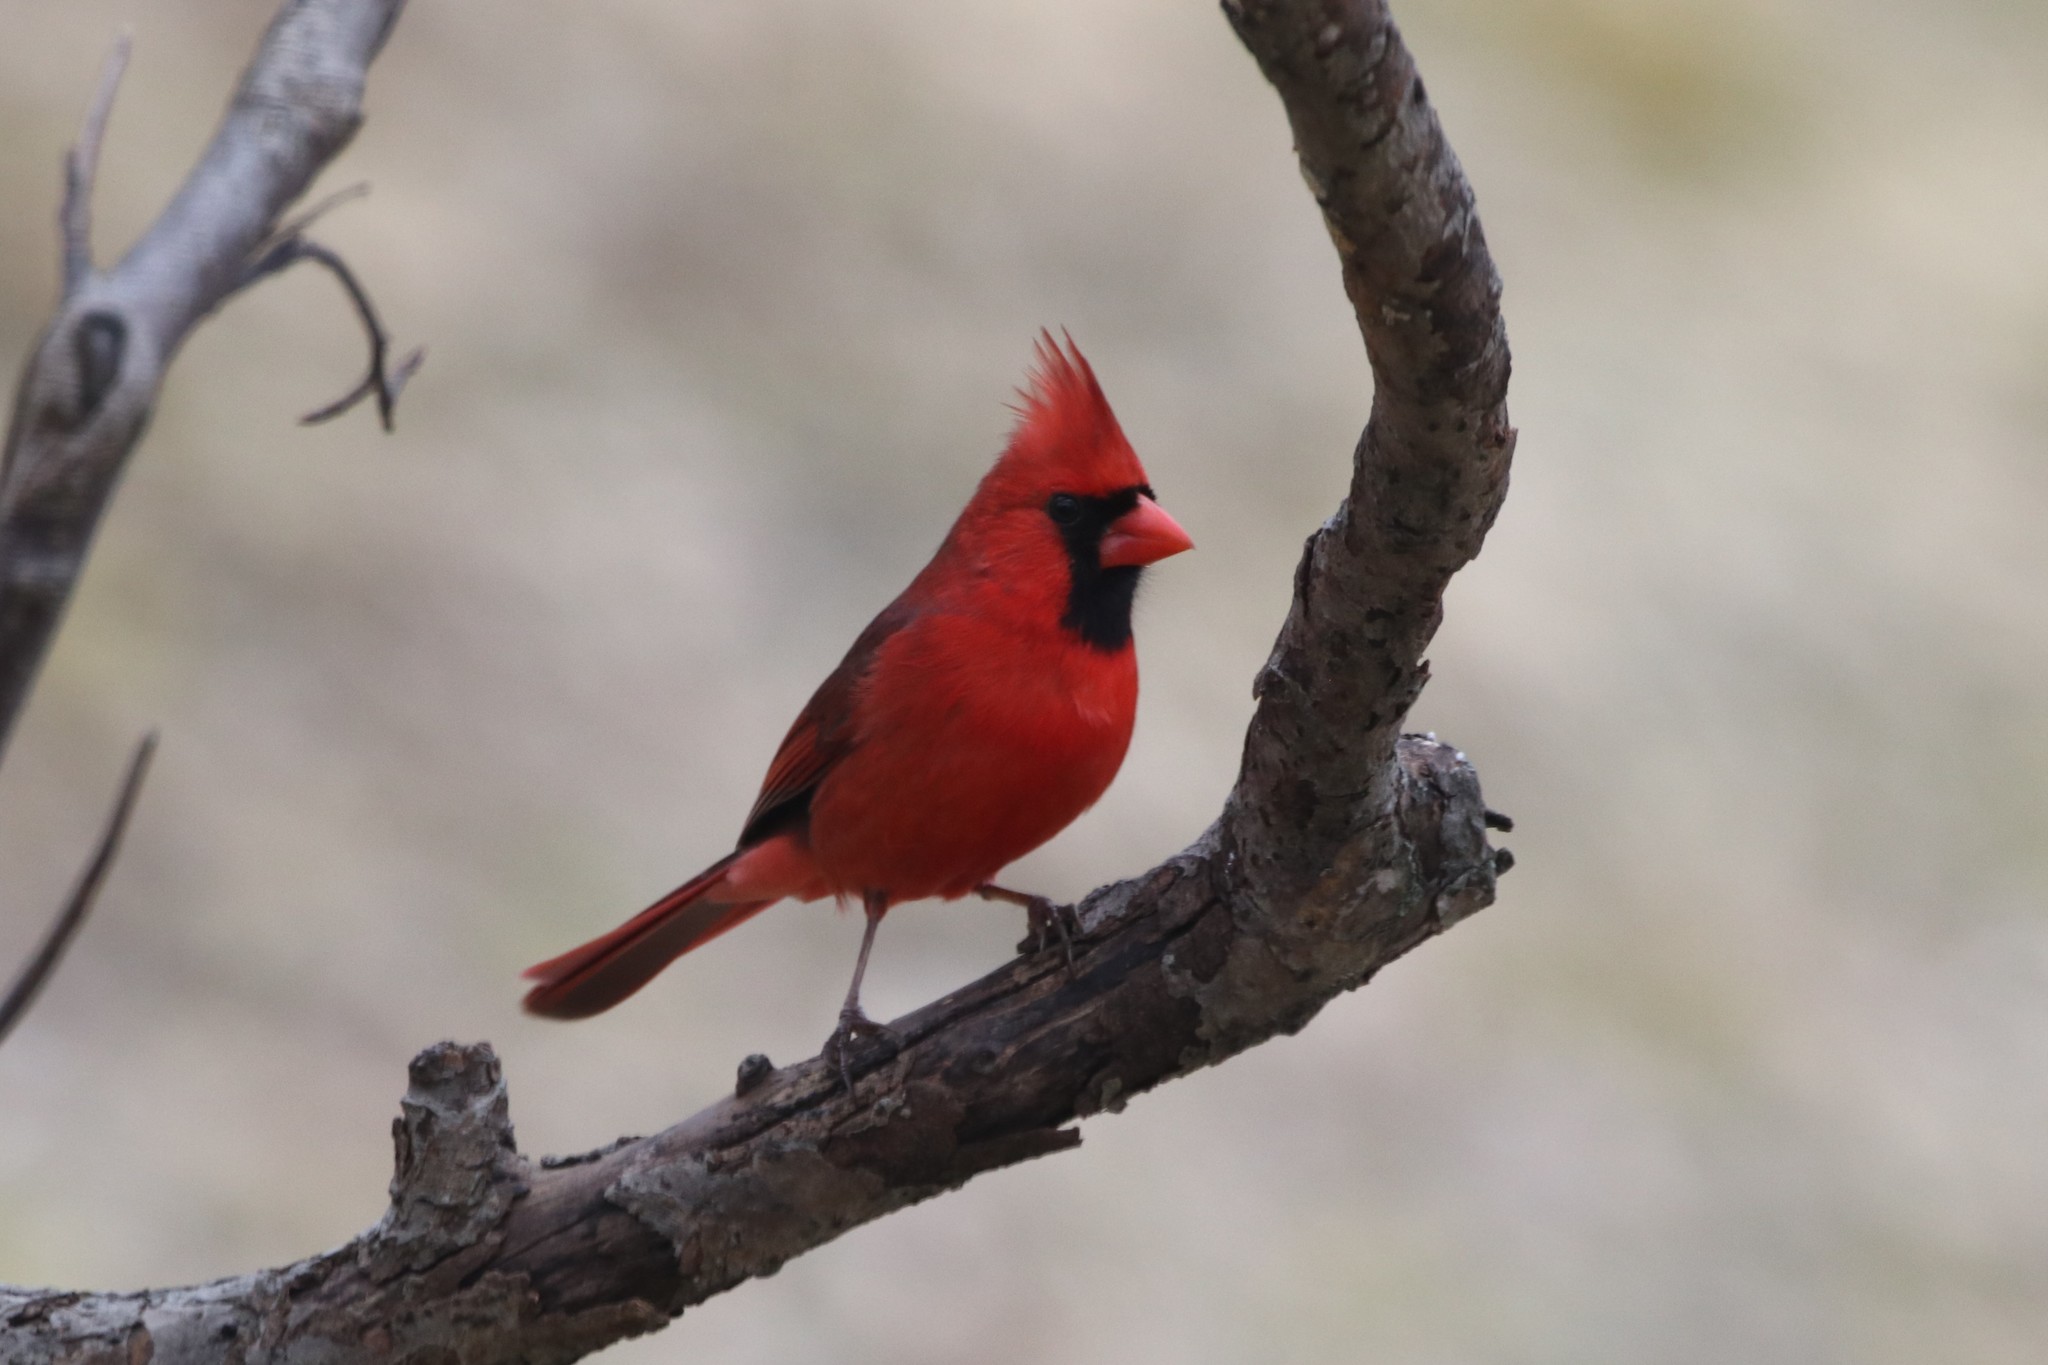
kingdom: Animalia
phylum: Chordata
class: Aves
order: Passeriformes
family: Cardinalidae
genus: Cardinalis
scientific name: Cardinalis cardinalis
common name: Northern cardinal
